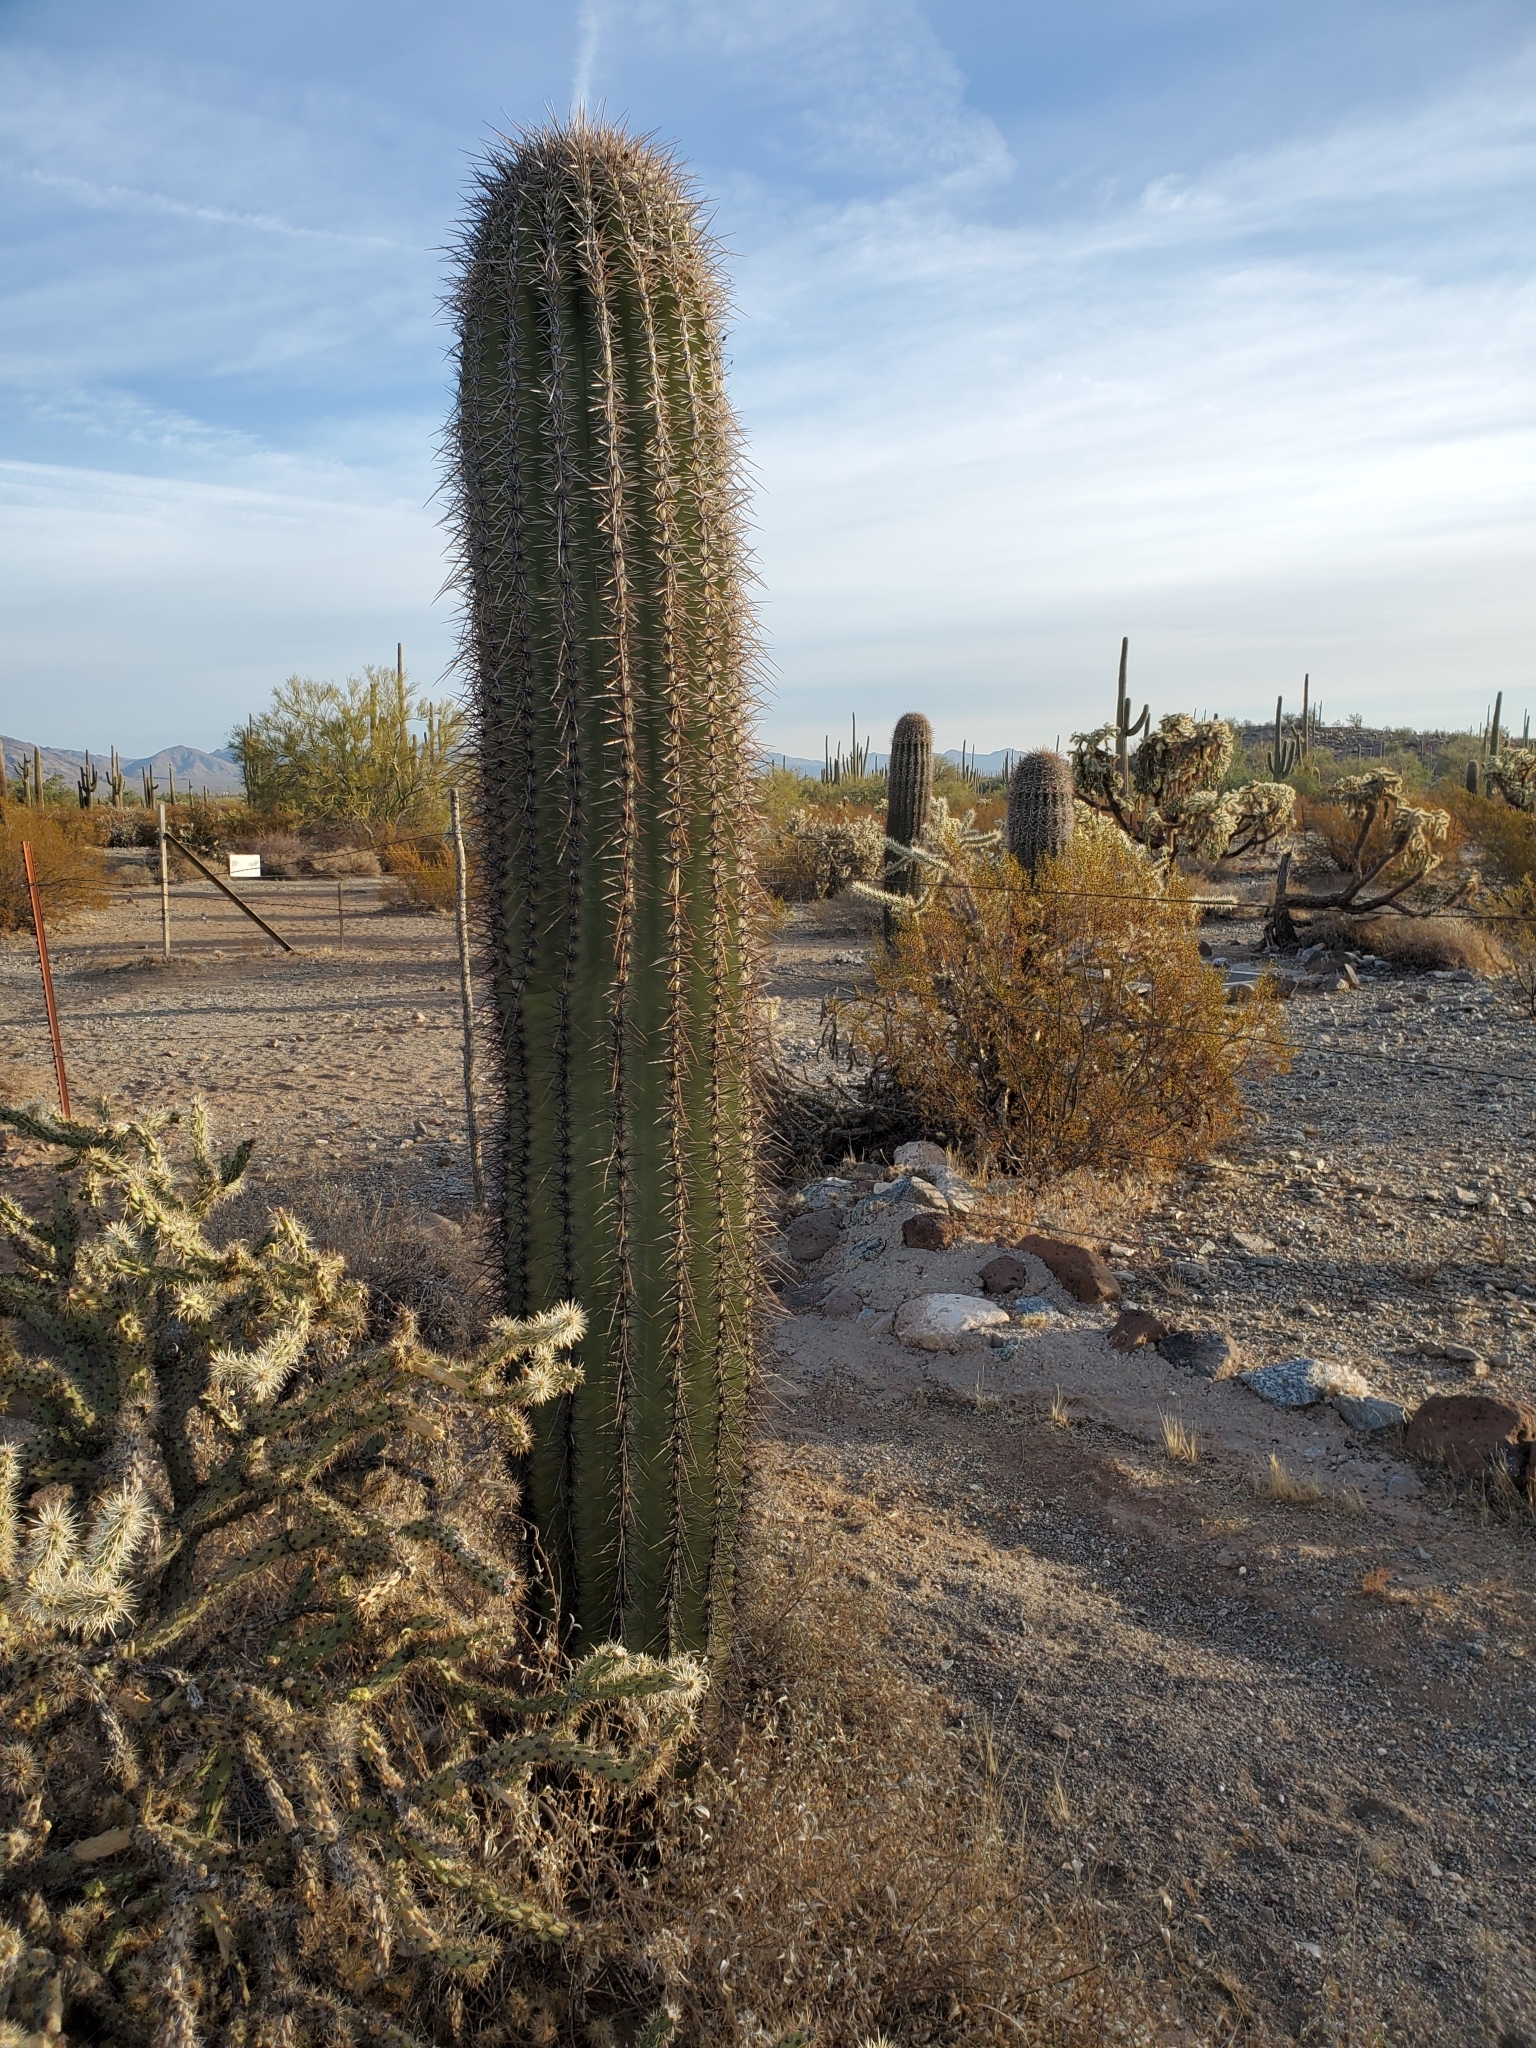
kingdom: Plantae
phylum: Tracheophyta
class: Magnoliopsida
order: Caryophyllales
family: Cactaceae
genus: Carnegiea
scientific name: Carnegiea gigantea
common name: Saguaro
